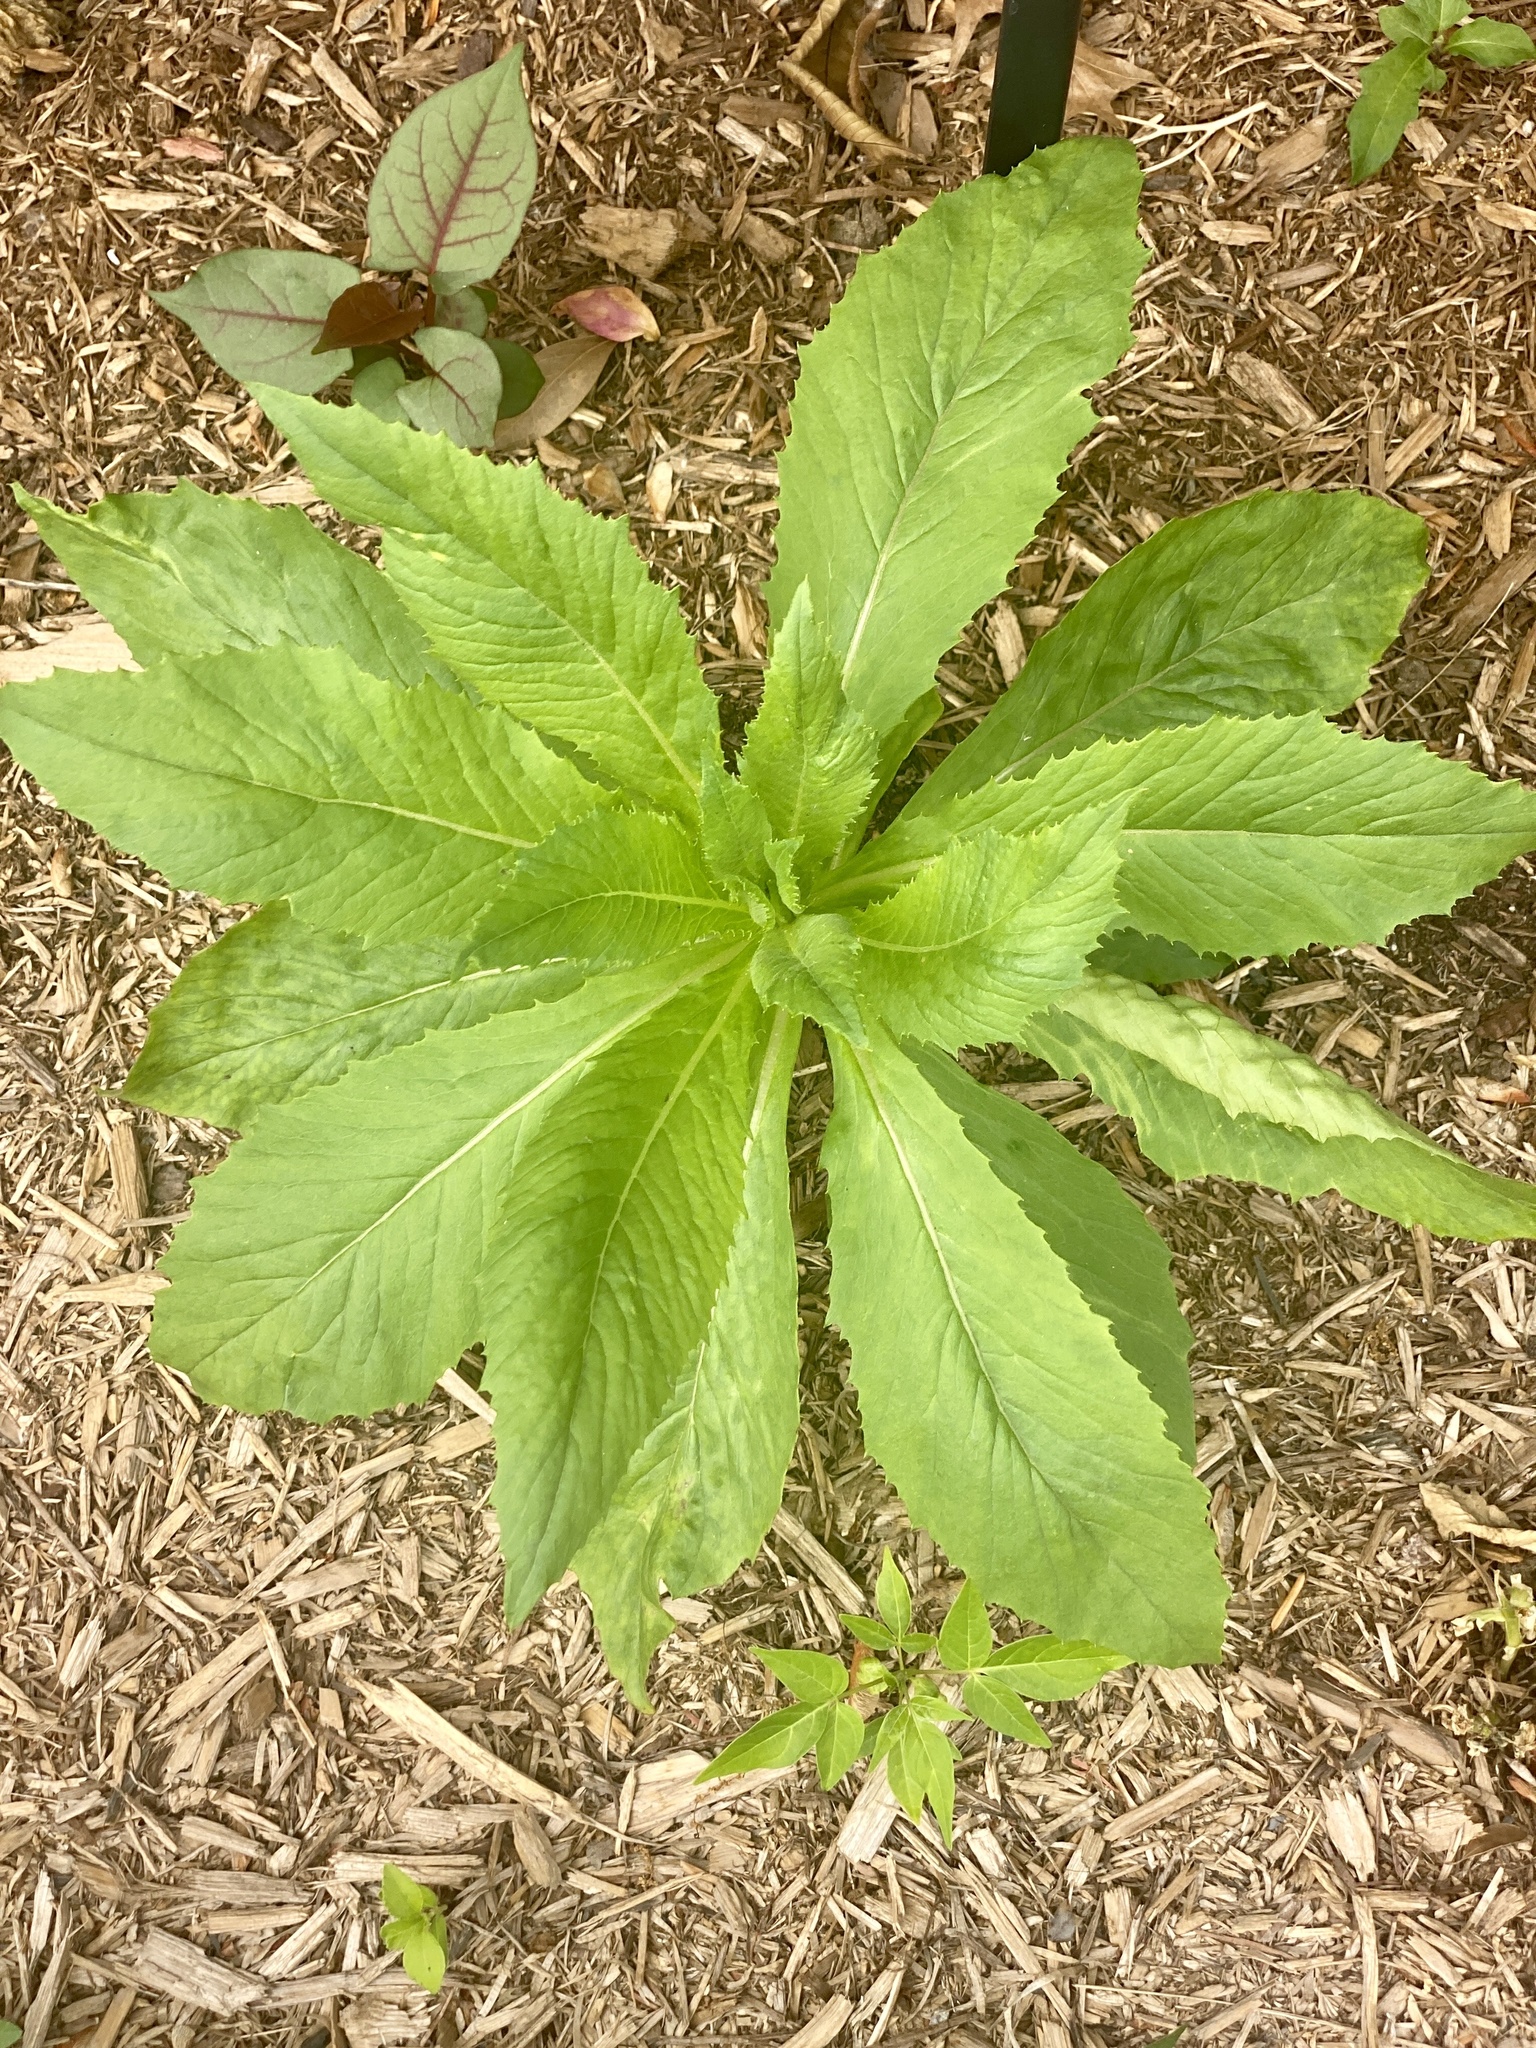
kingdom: Plantae
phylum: Tracheophyta
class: Magnoliopsida
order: Asterales
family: Asteraceae
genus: Erechtites
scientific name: Erechtites hieraciifolius
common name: American burnweed
